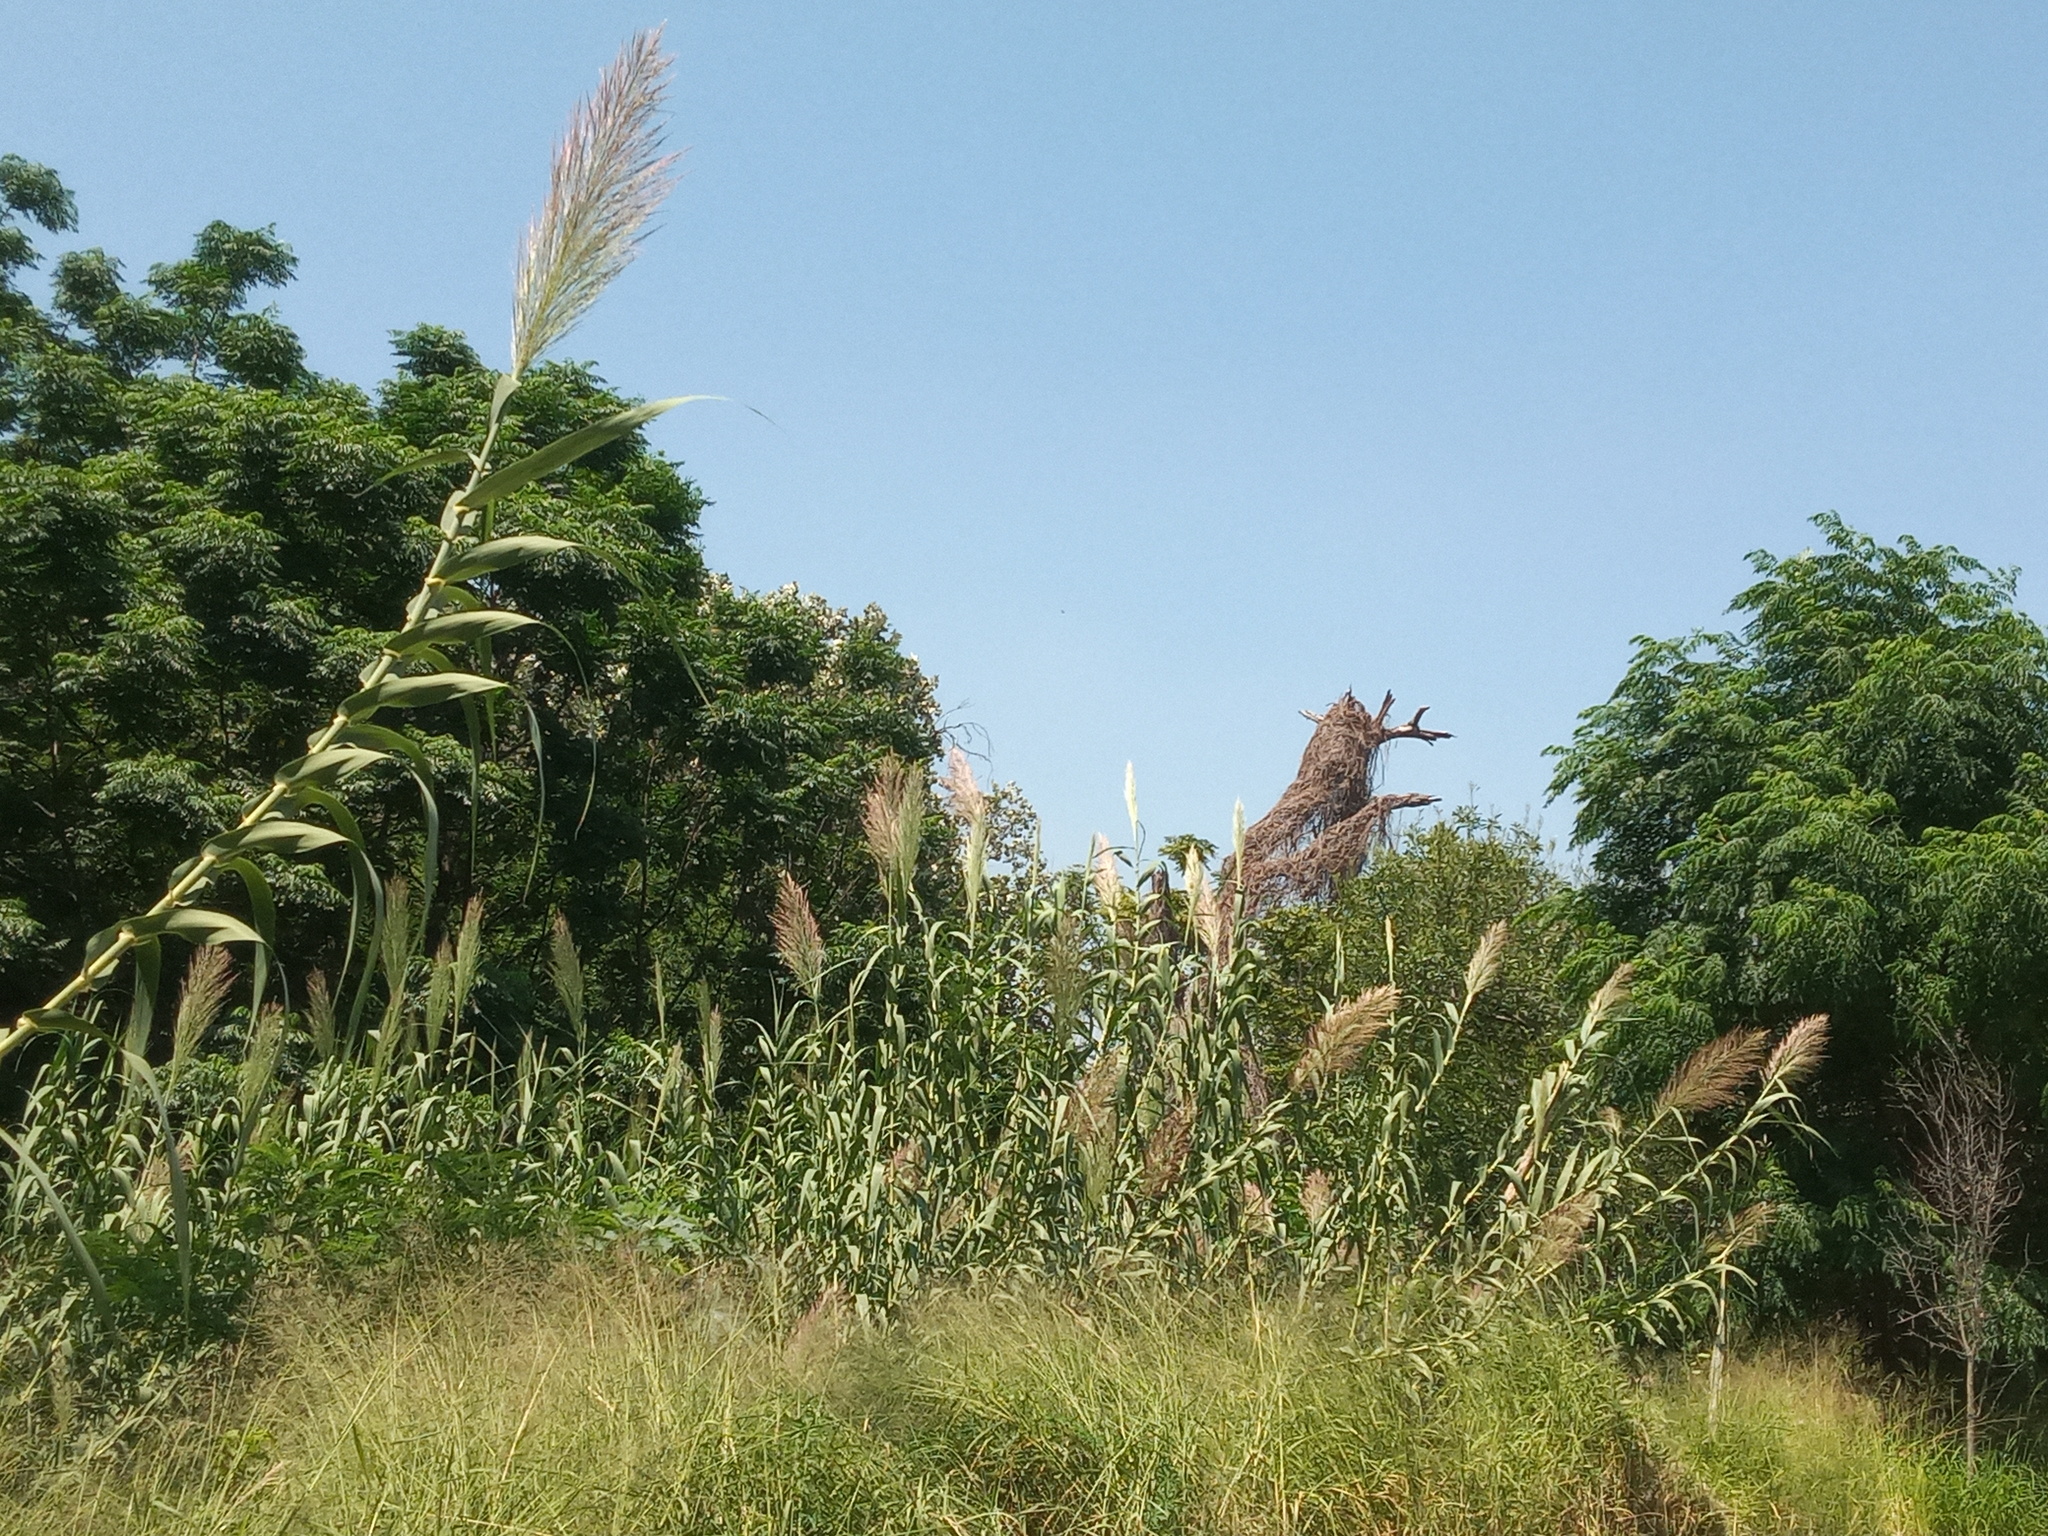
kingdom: Plantae
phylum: Tracheophyta
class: Liliopsida
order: Poales
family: Poaceae
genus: Arundo
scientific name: Arundo donax
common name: Giant reed
